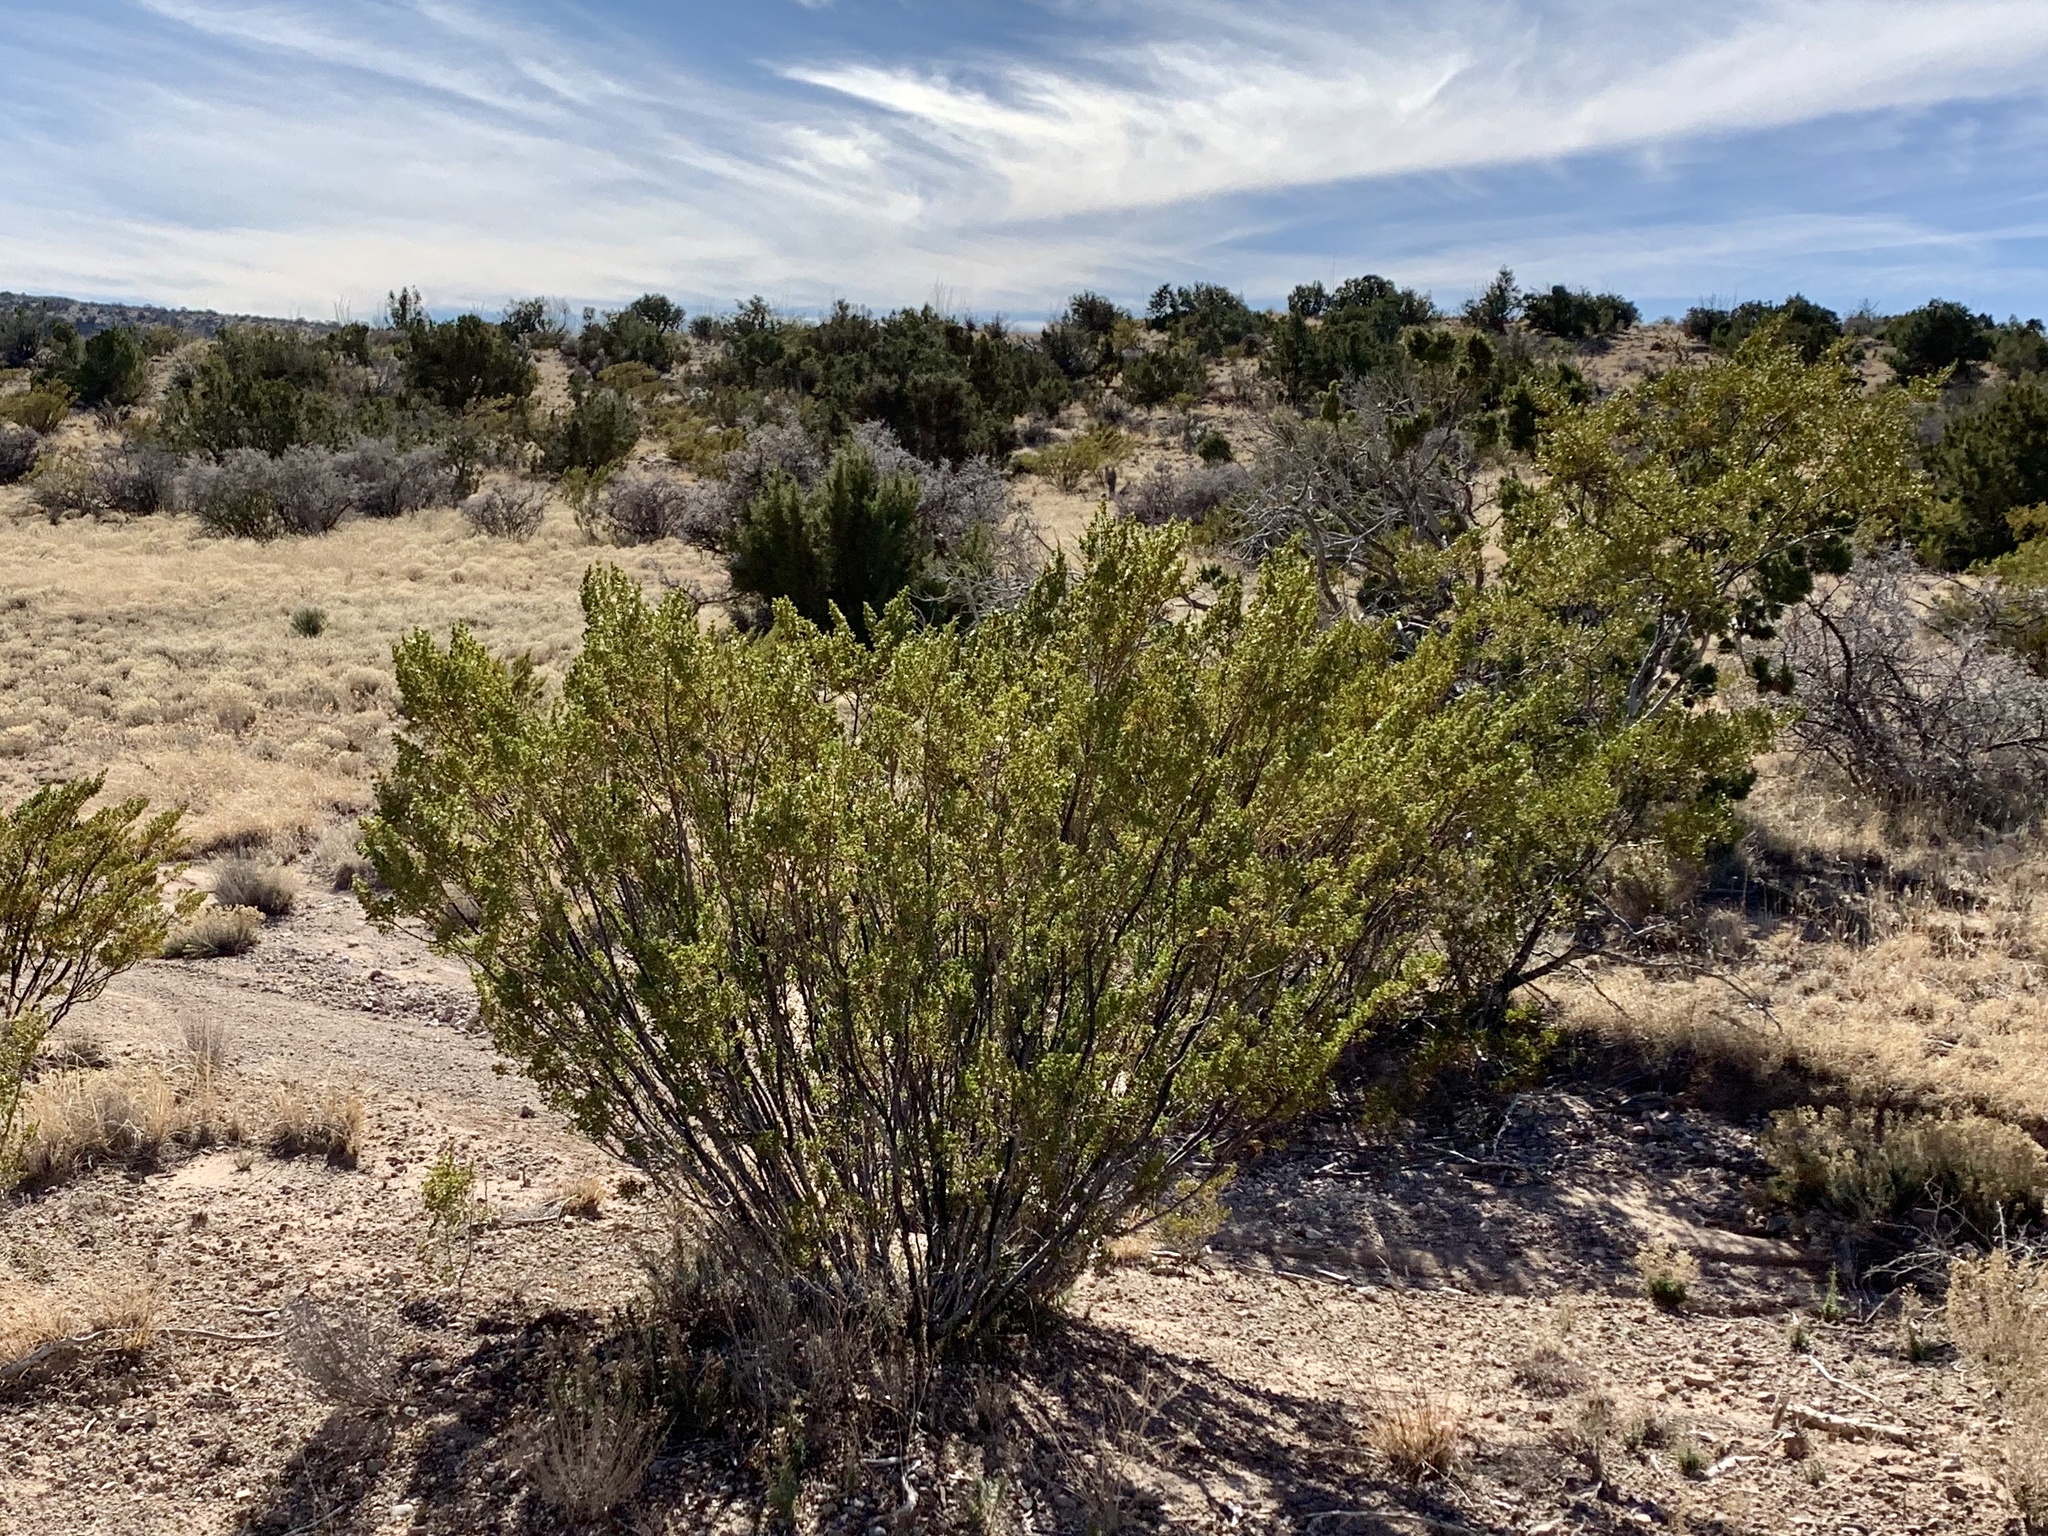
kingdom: Plantae
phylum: Tracheophyta
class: Magnoliopsida
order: Zygophyllales
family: Zygophyllaceae
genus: Larrea
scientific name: Larrea tridentata
